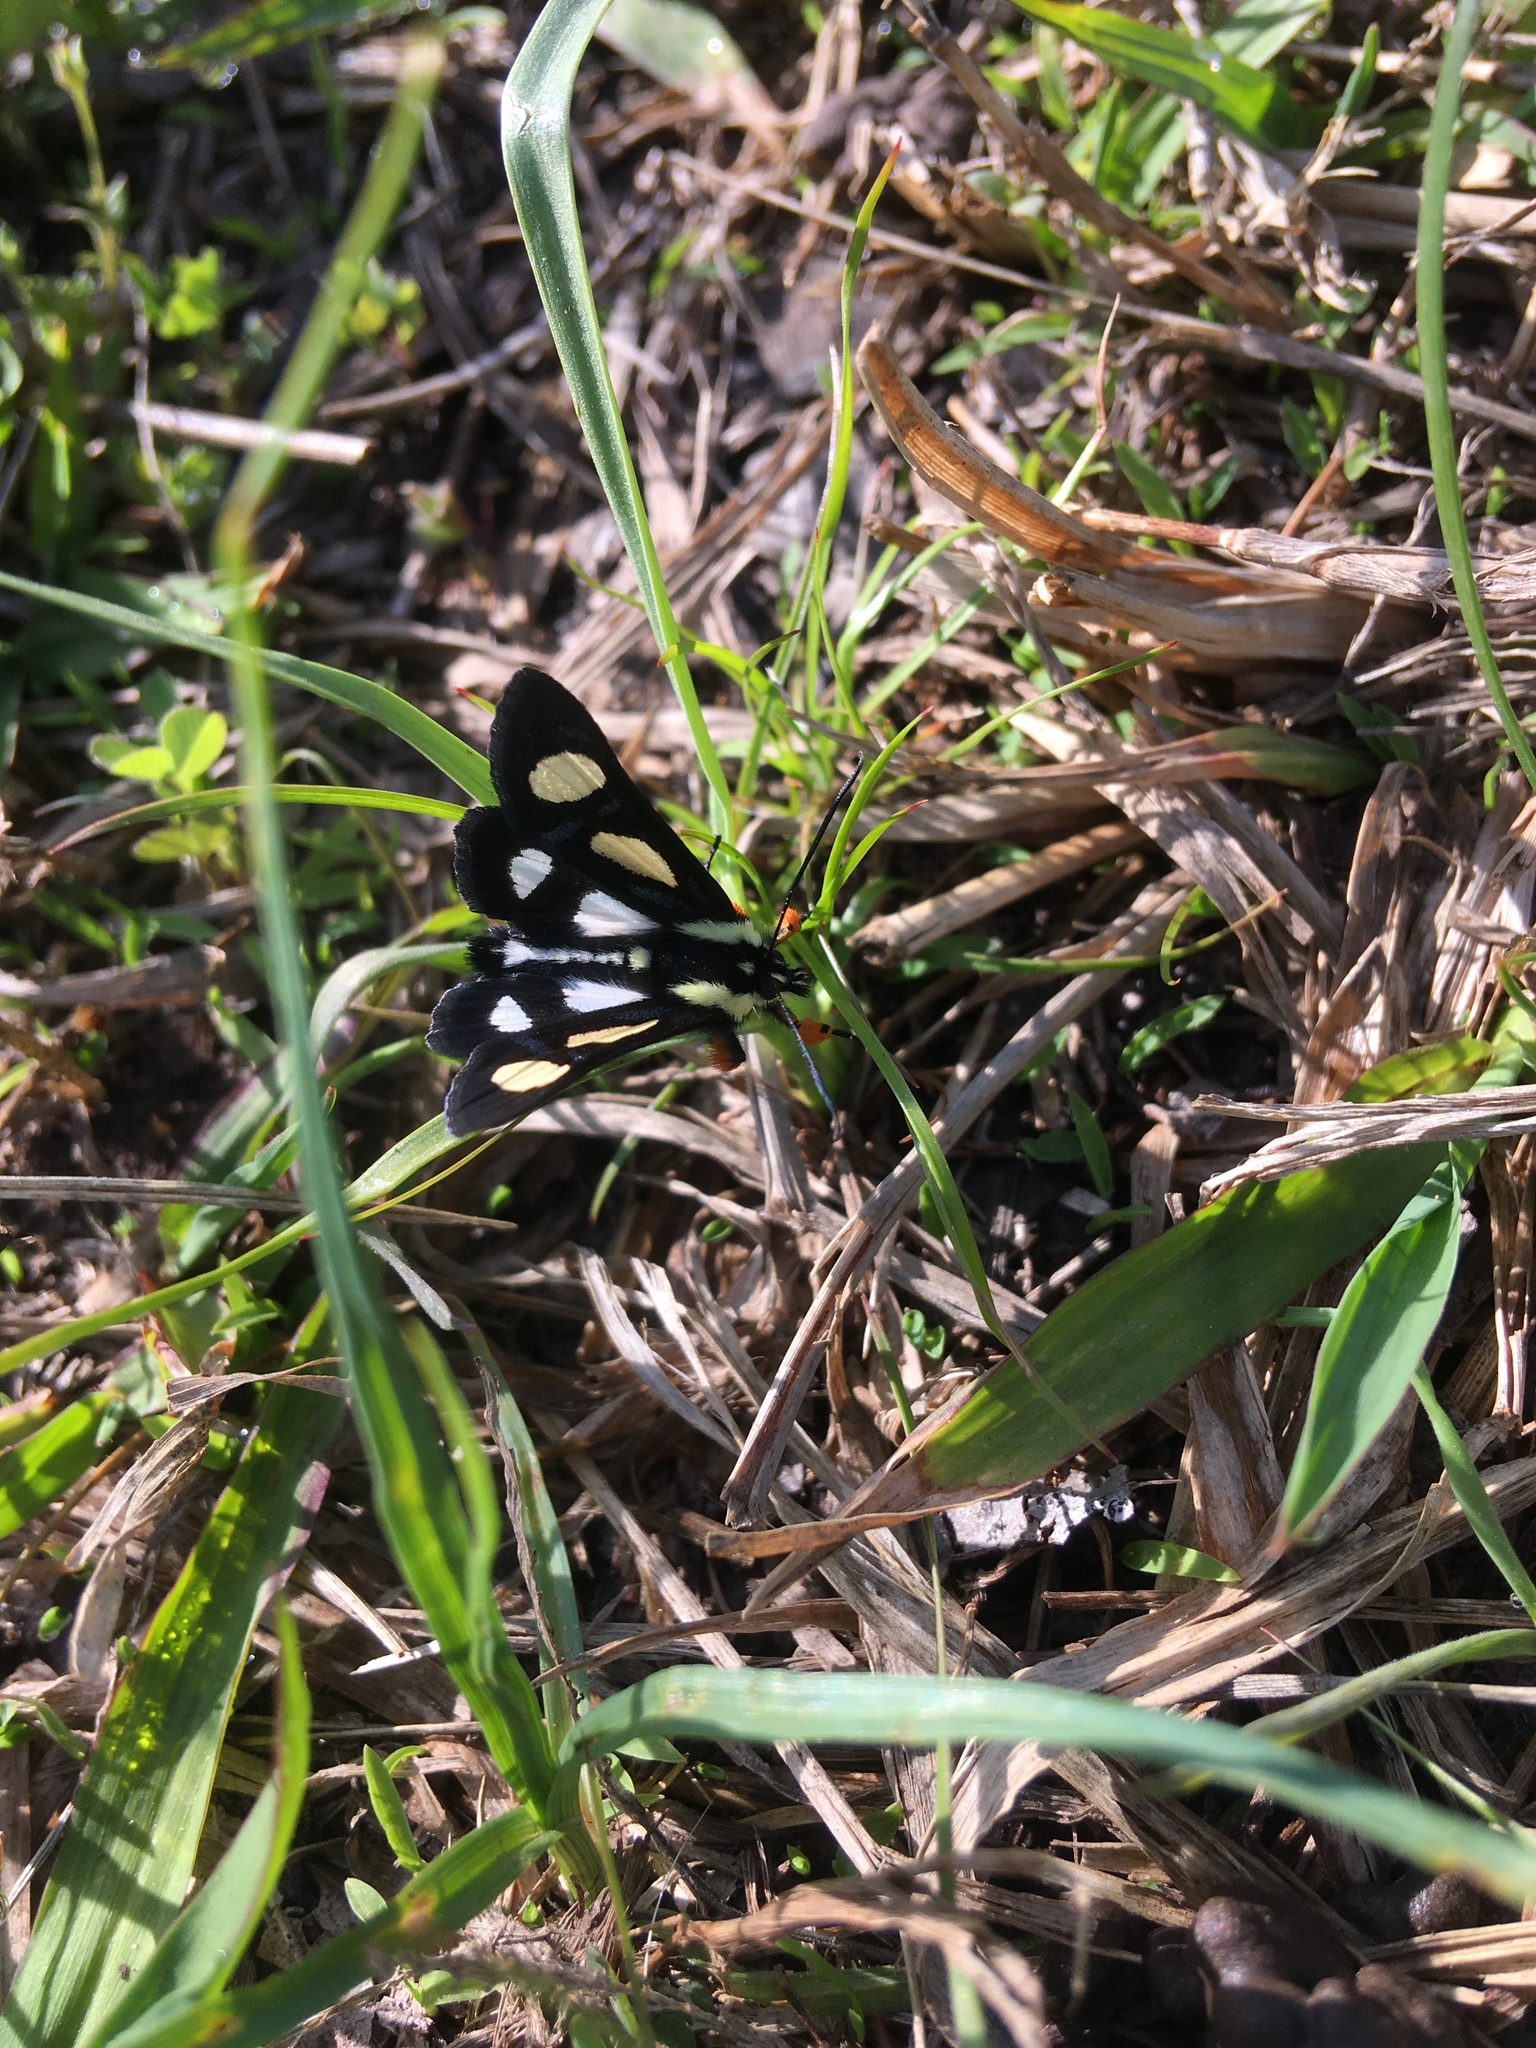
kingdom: Animalia
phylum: Arthropoda
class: Insecta
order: Lepidoptera
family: Noctuidae
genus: Alypia
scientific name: Alypia octomaculata
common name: Eight-spotted forester
